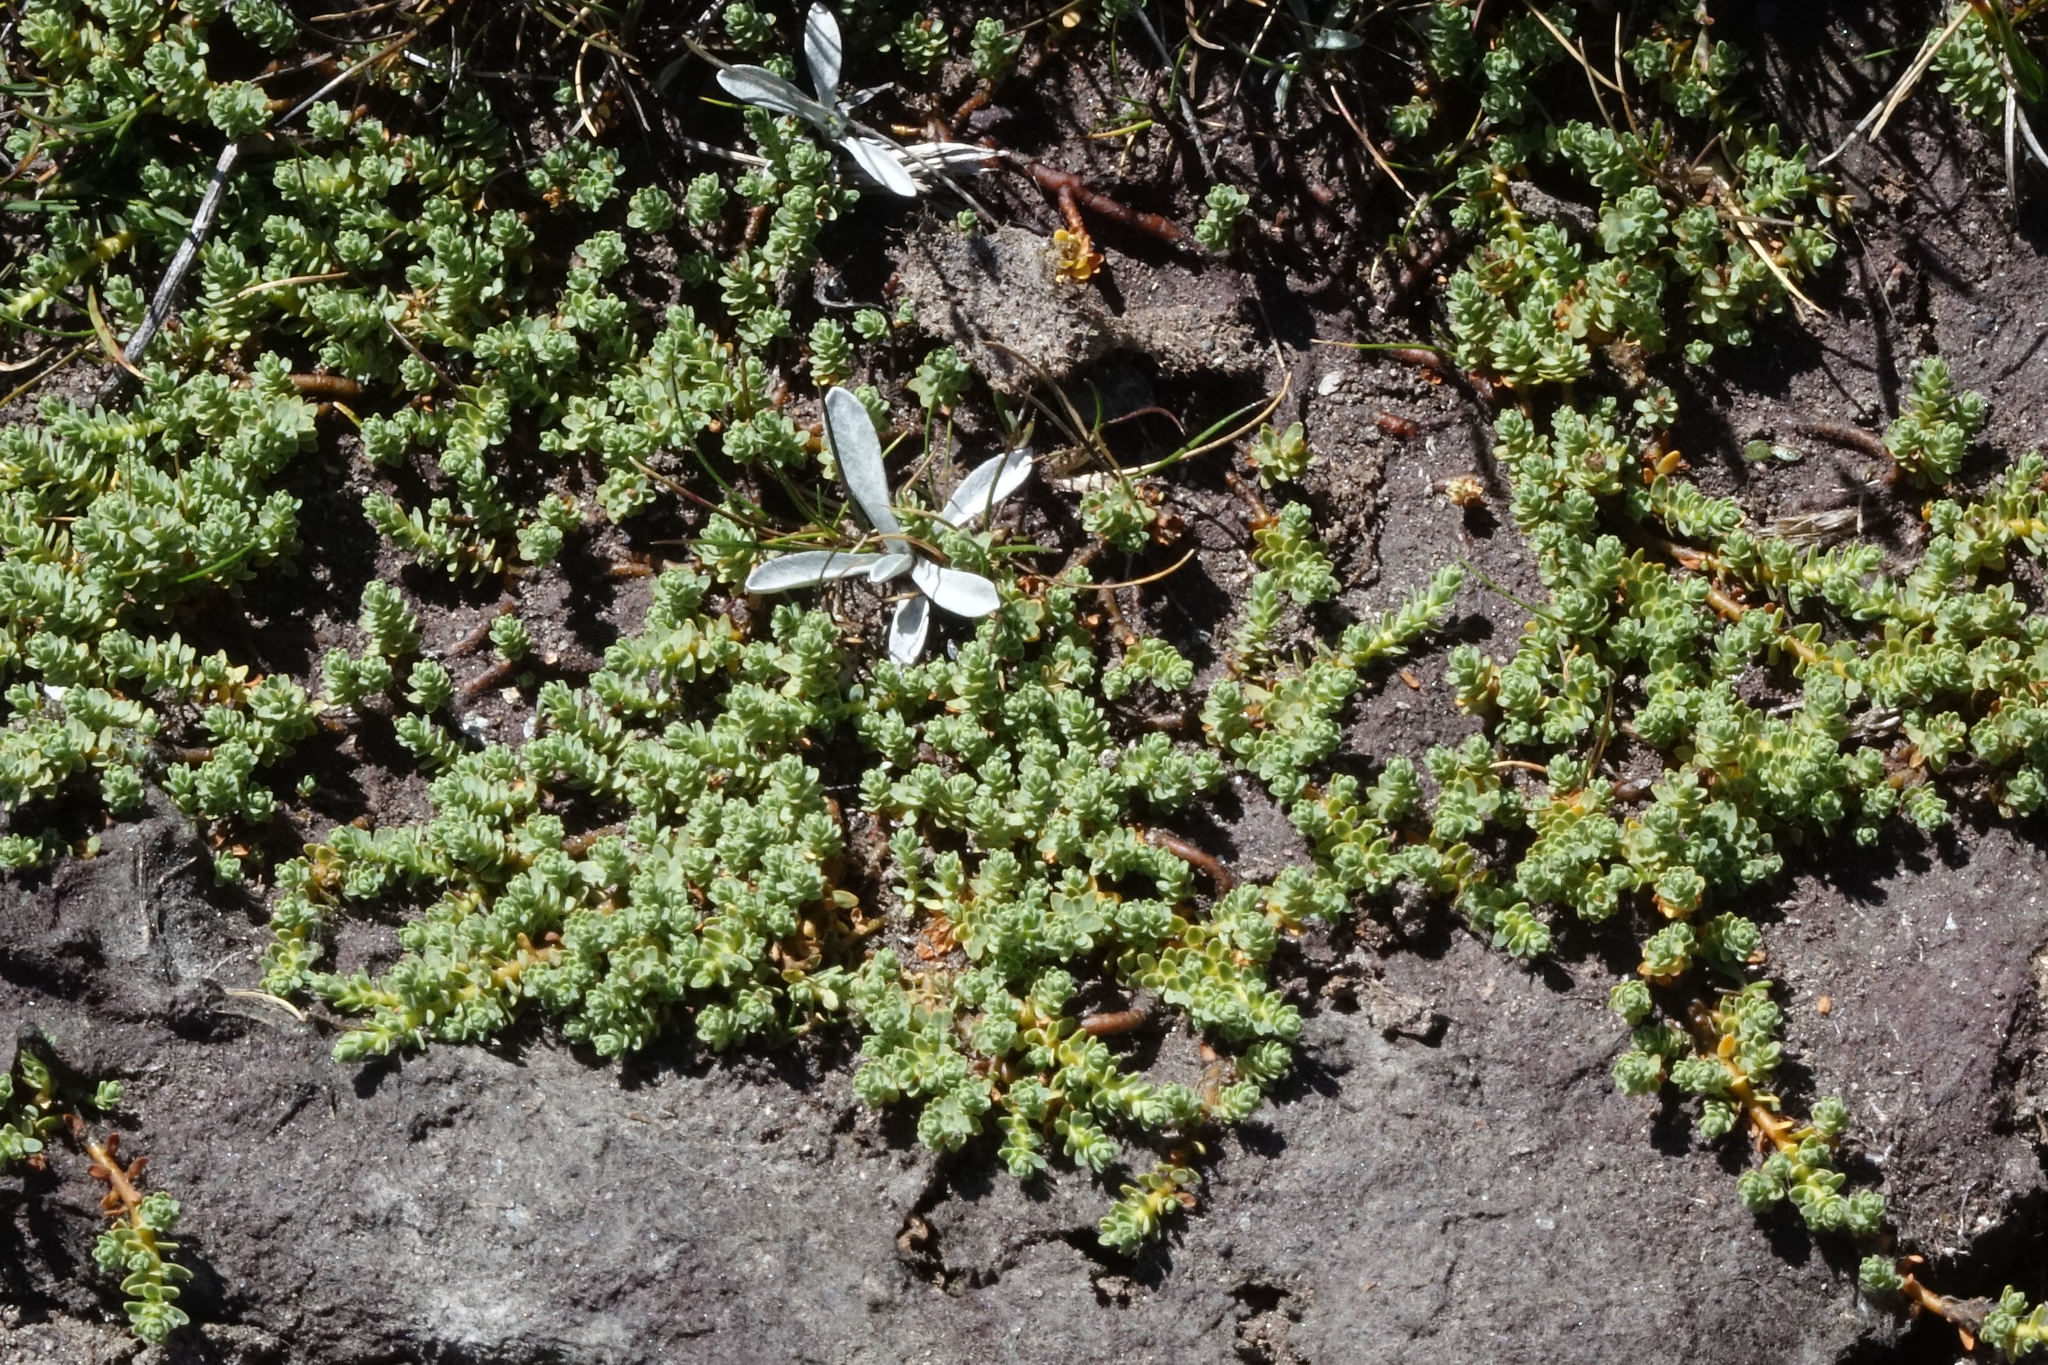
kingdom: Plantae
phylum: Tracheophyta
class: Magnoliopsida
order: Malvales
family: Thymelaeaceae
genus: Kelleria
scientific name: Kelleria paludosa
